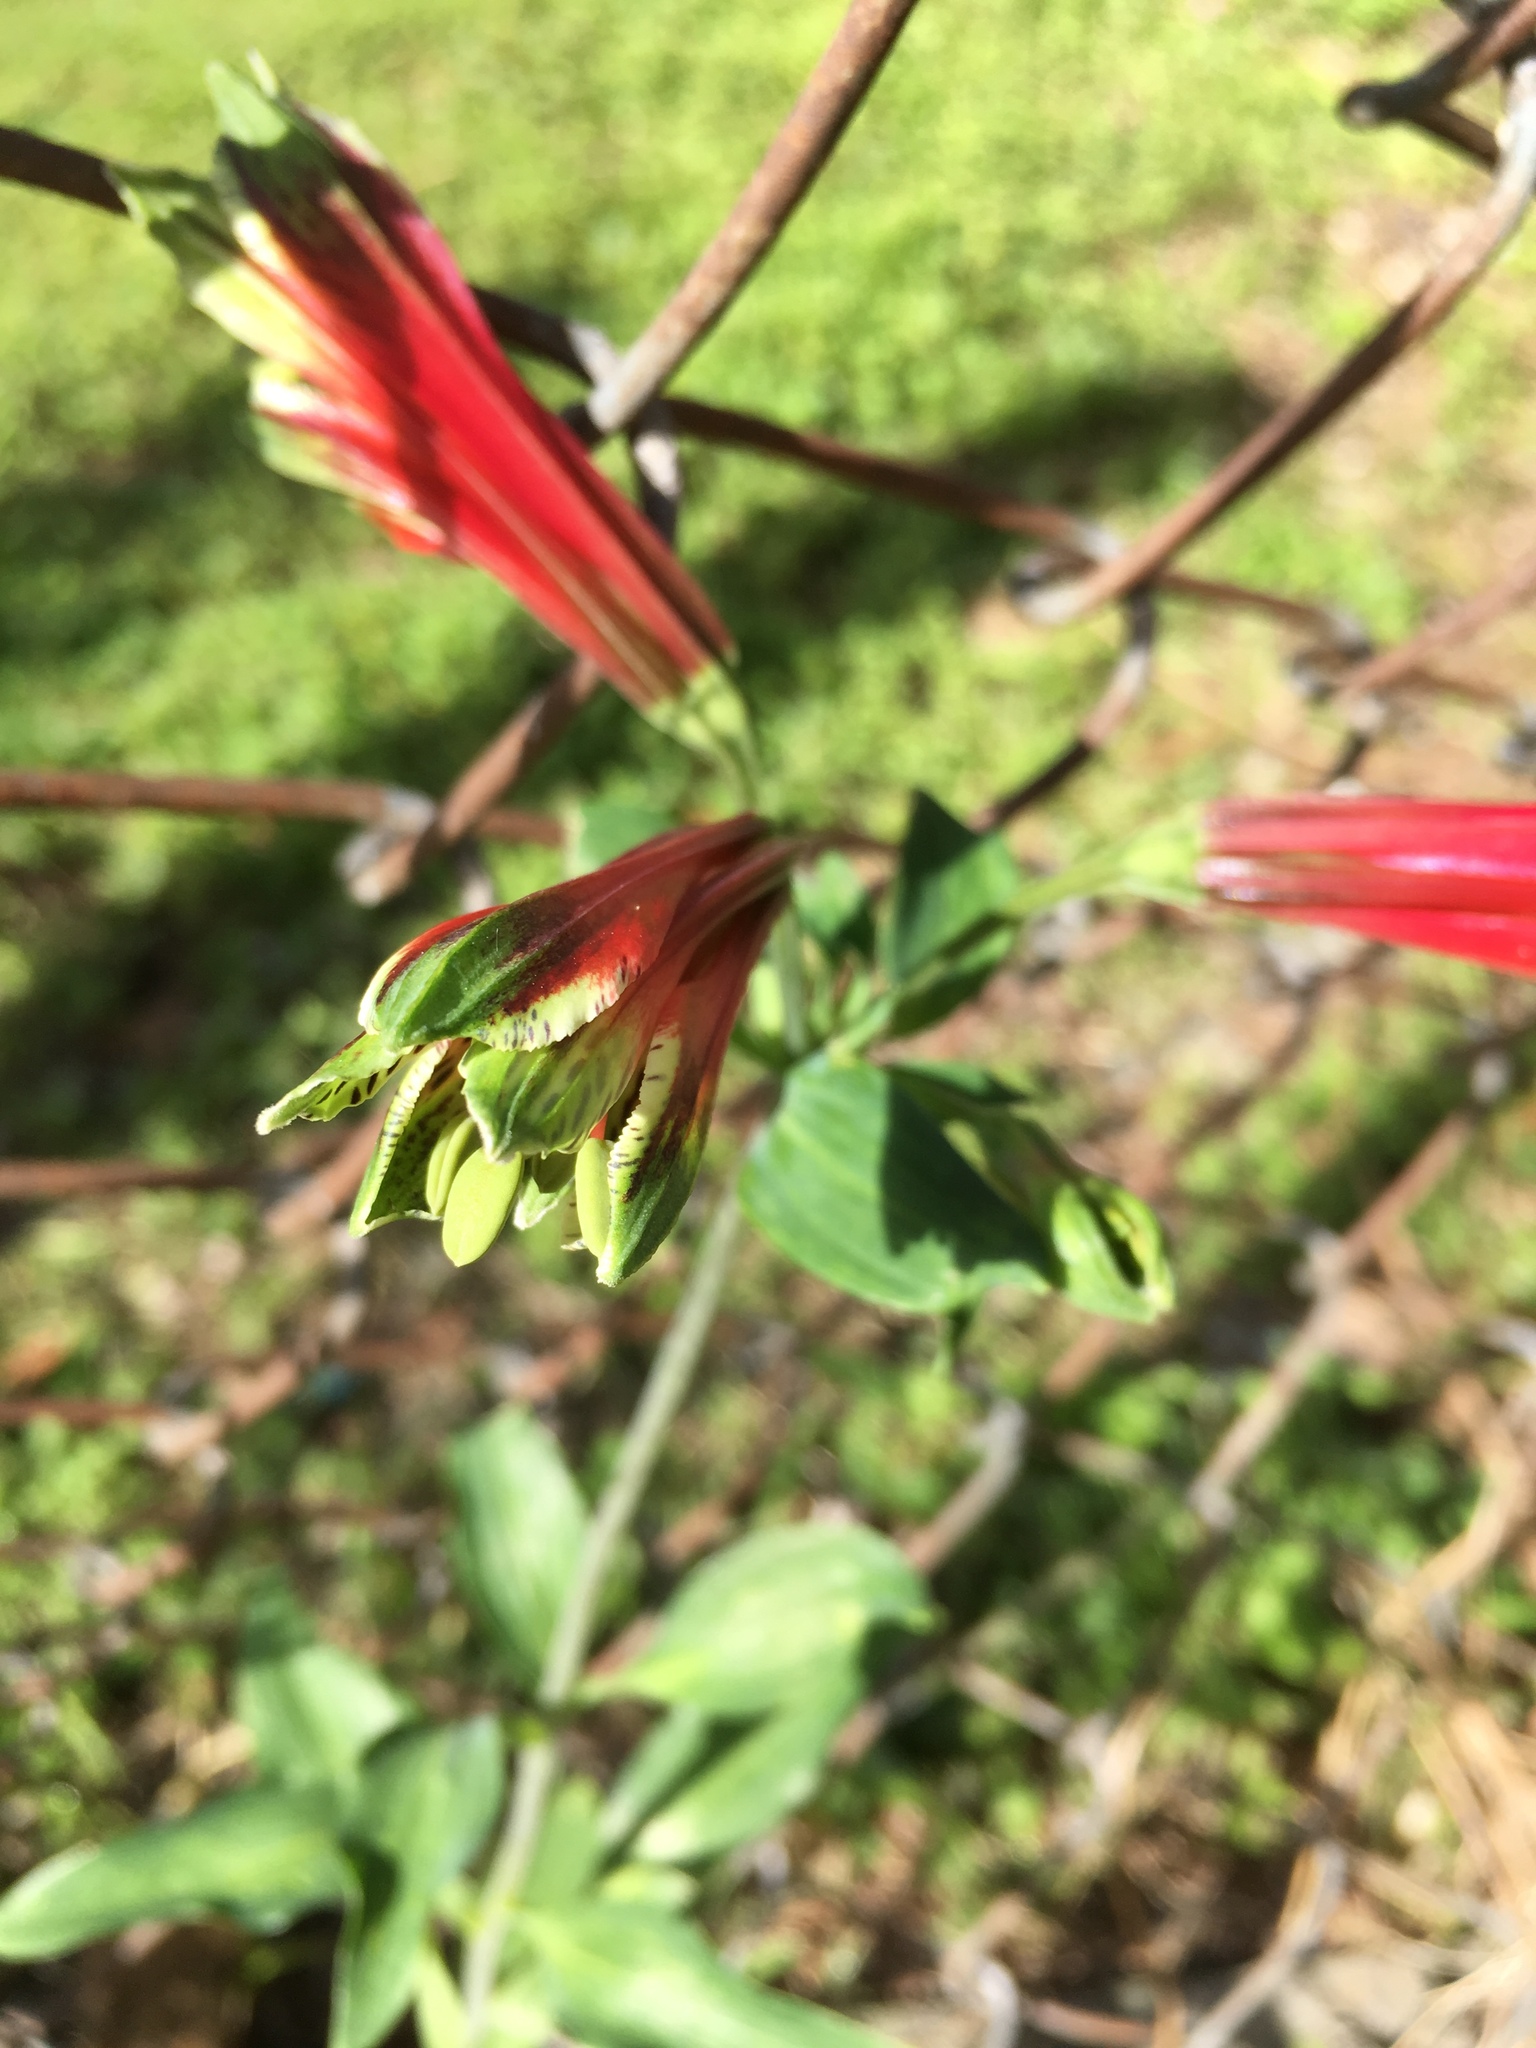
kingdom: Plantae
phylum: Tracheophyta
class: Liliopsida
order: Liliales
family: Alstroemeriaceae
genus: Alstroemeria
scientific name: Alstroemeria psittacina
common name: Peruvian-lily
